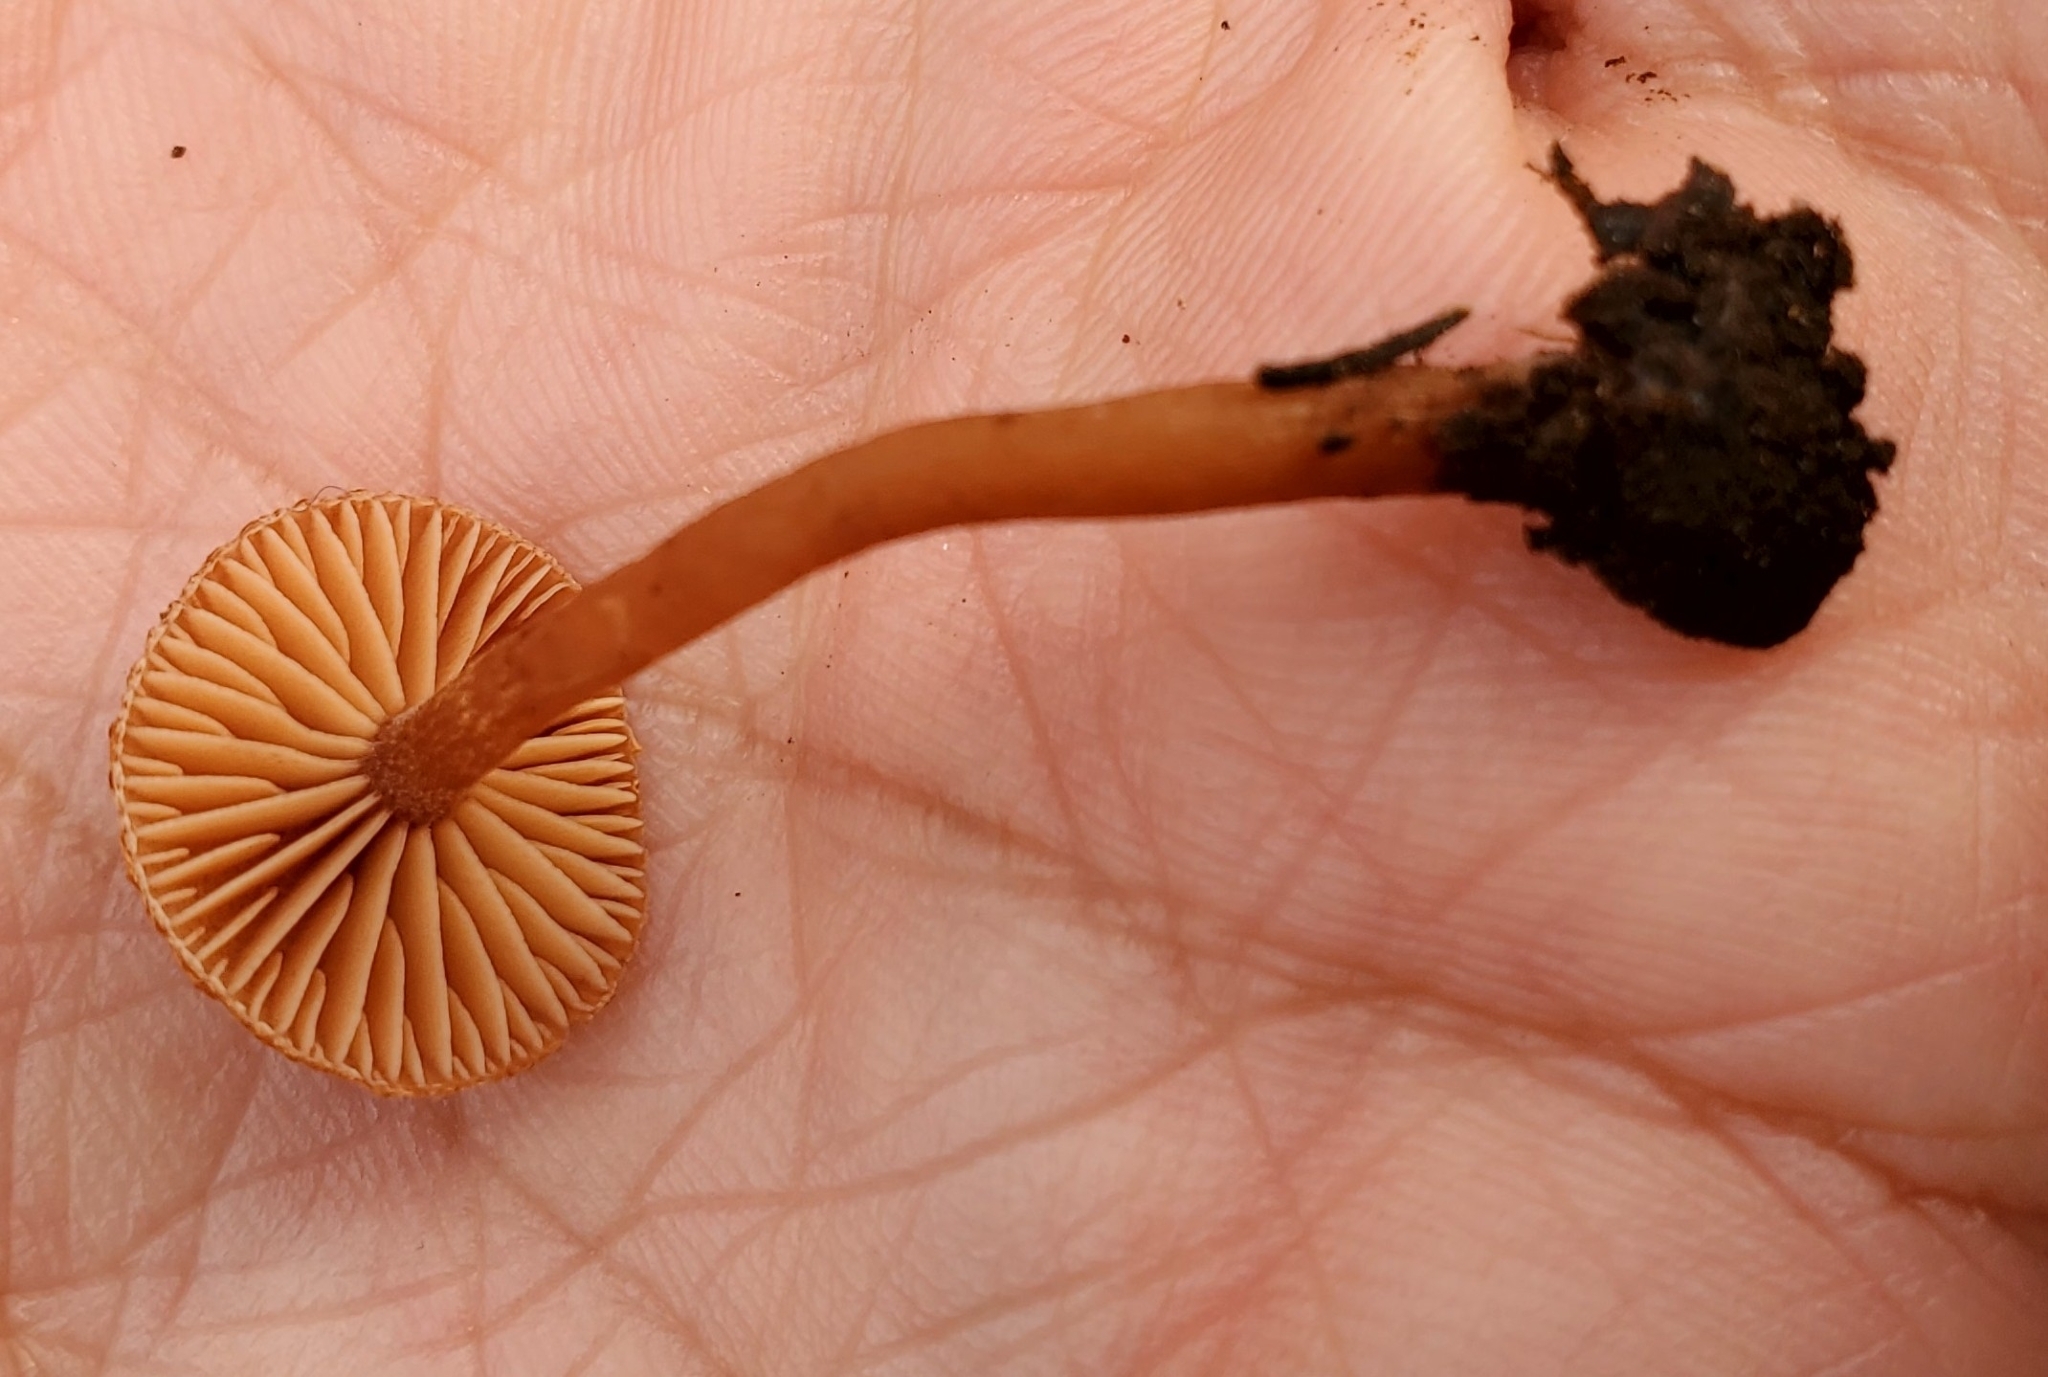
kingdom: Fungi
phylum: Basidiomycota
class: Agaricomycetes
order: Agaricales
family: Tubariaceae
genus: Tubaria
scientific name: Tubaria furfuracea
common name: Scurfy twiglet
